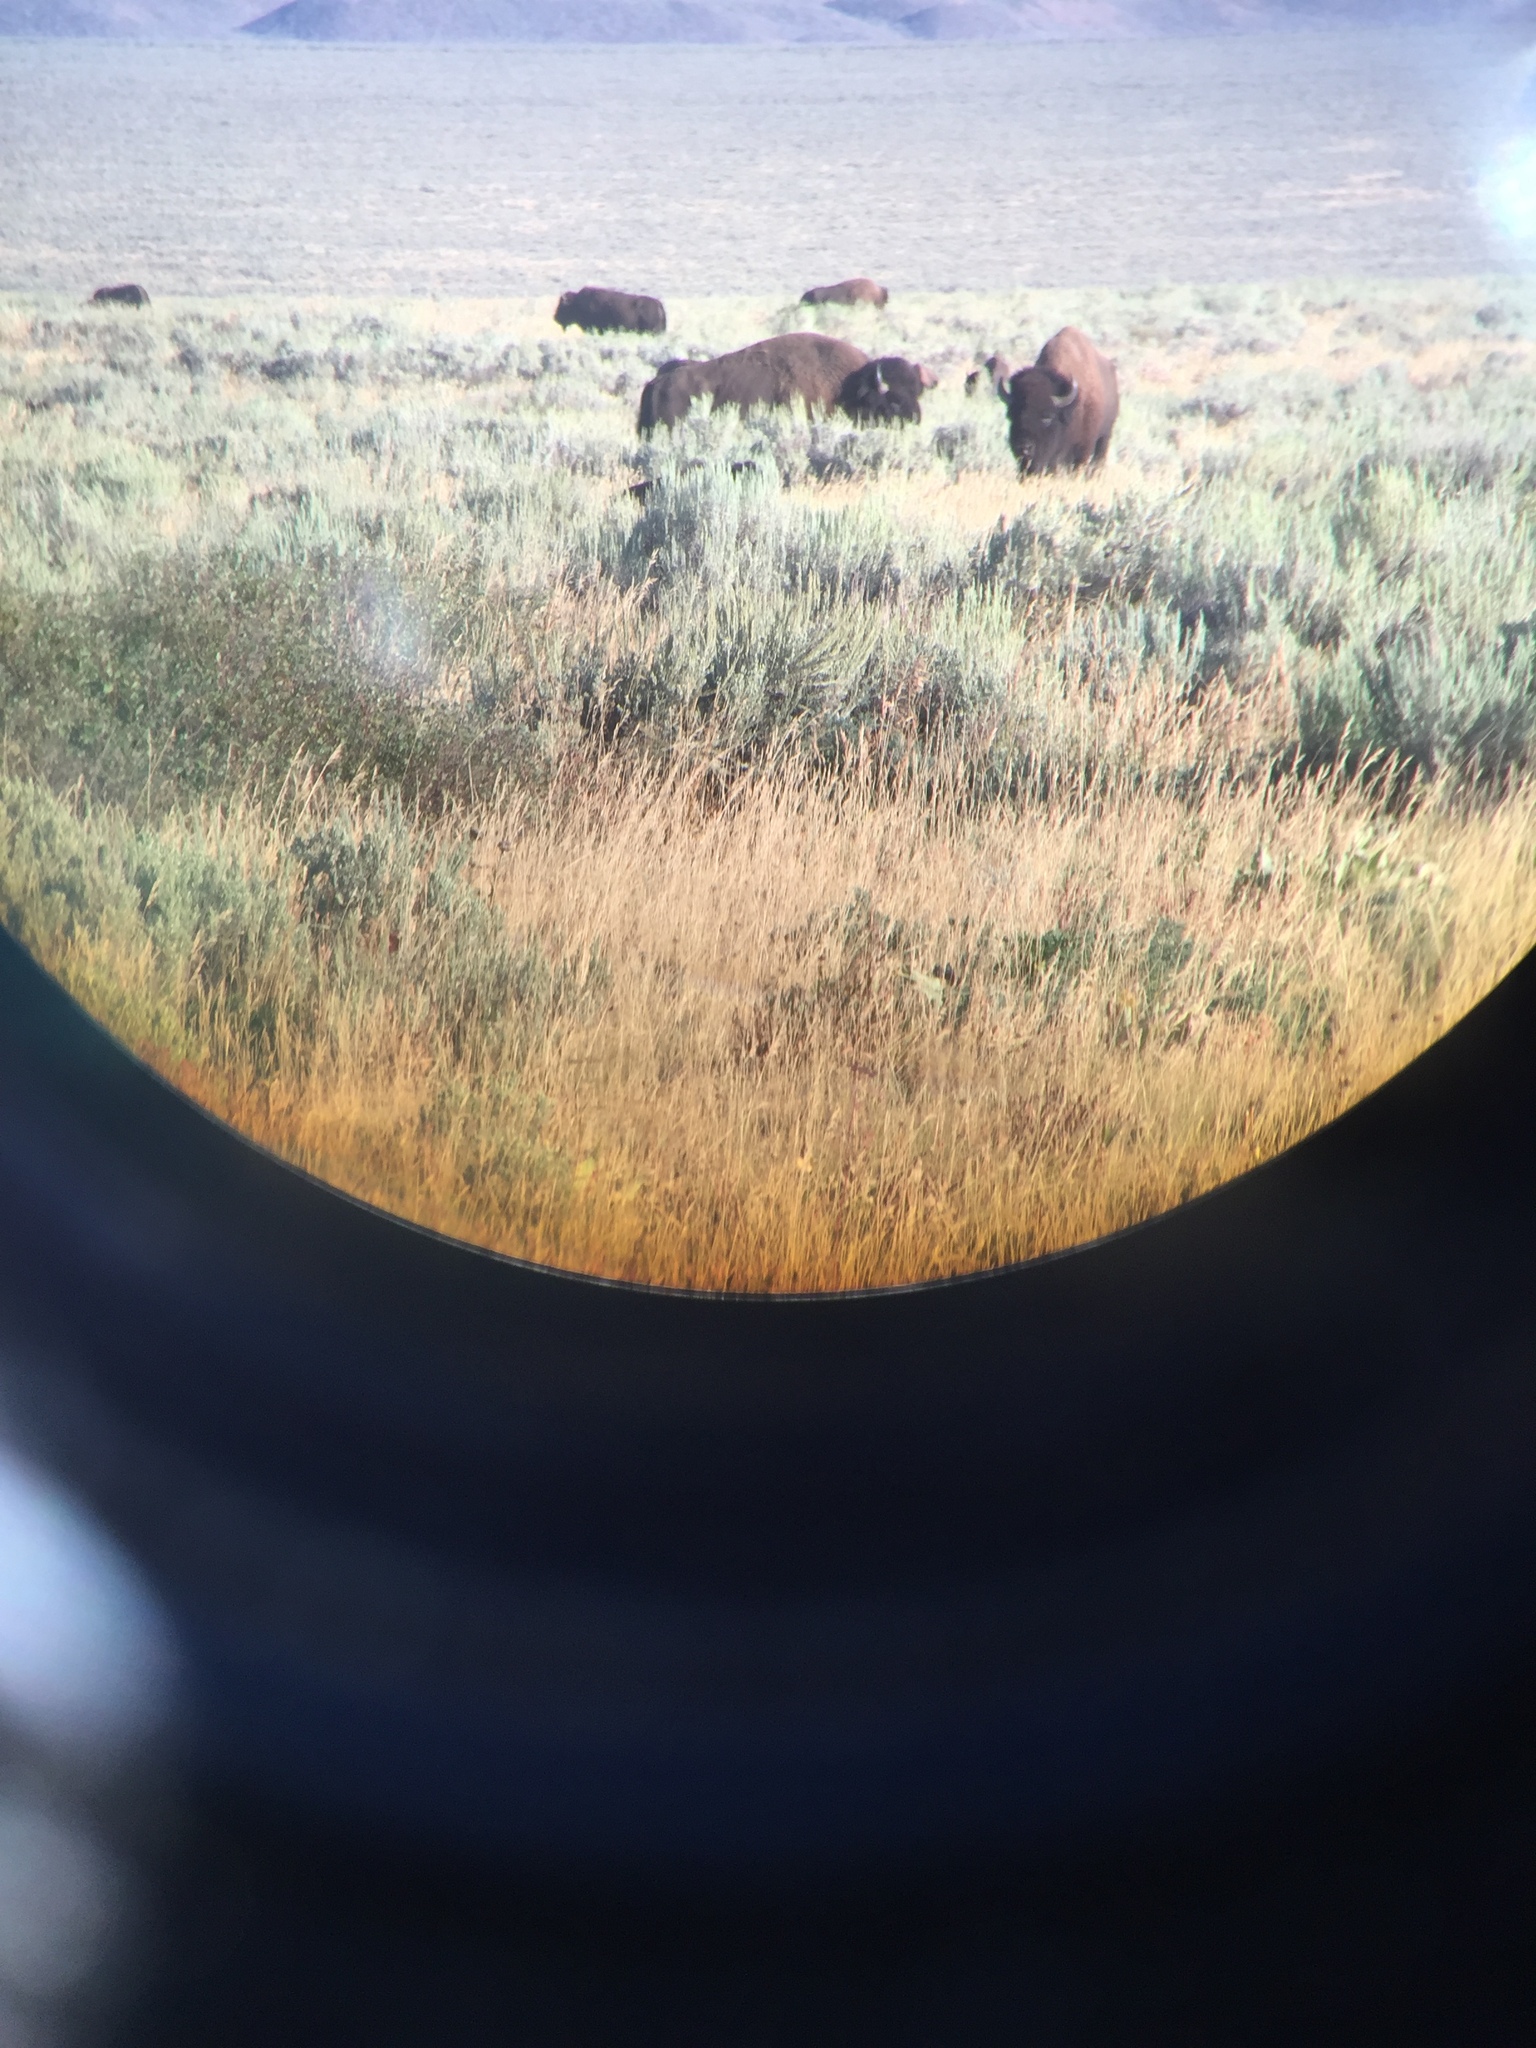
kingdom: Animalia
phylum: Chordata
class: Mammalia
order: Artiodactyla
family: Bovidae
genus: Bison
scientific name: Bison bison
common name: American bison
